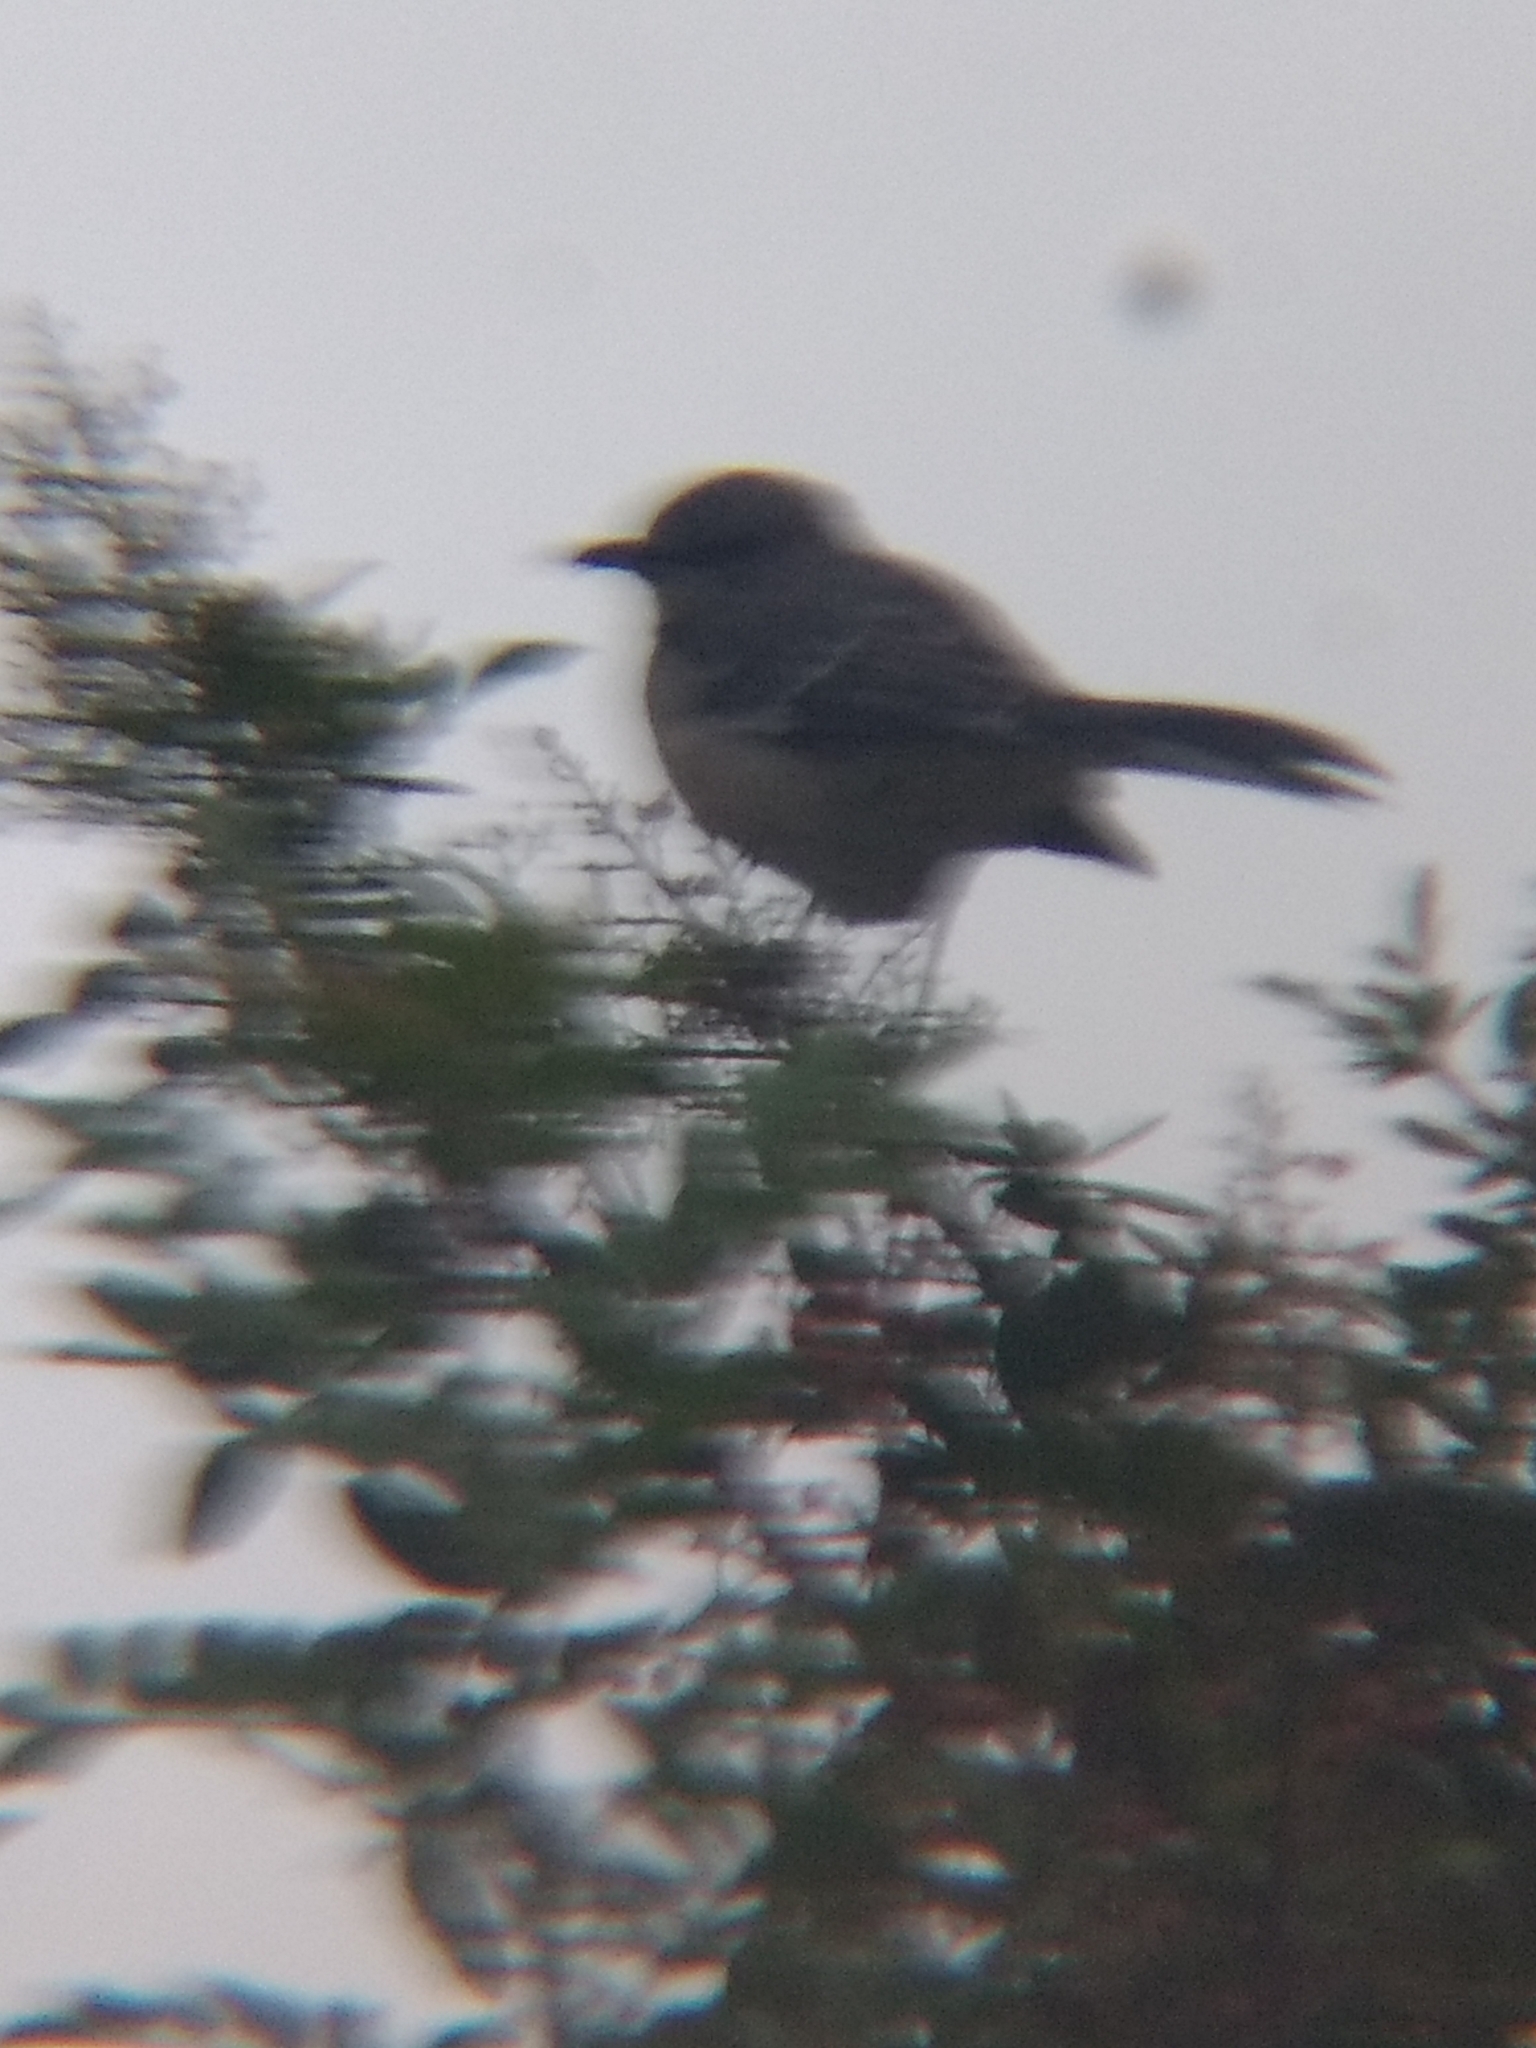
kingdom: Animalia
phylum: Chordata
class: Aves
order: Passeriformes
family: Mimidae
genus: Mimus
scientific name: Mimus polyglottos
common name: Northern mockingbird
